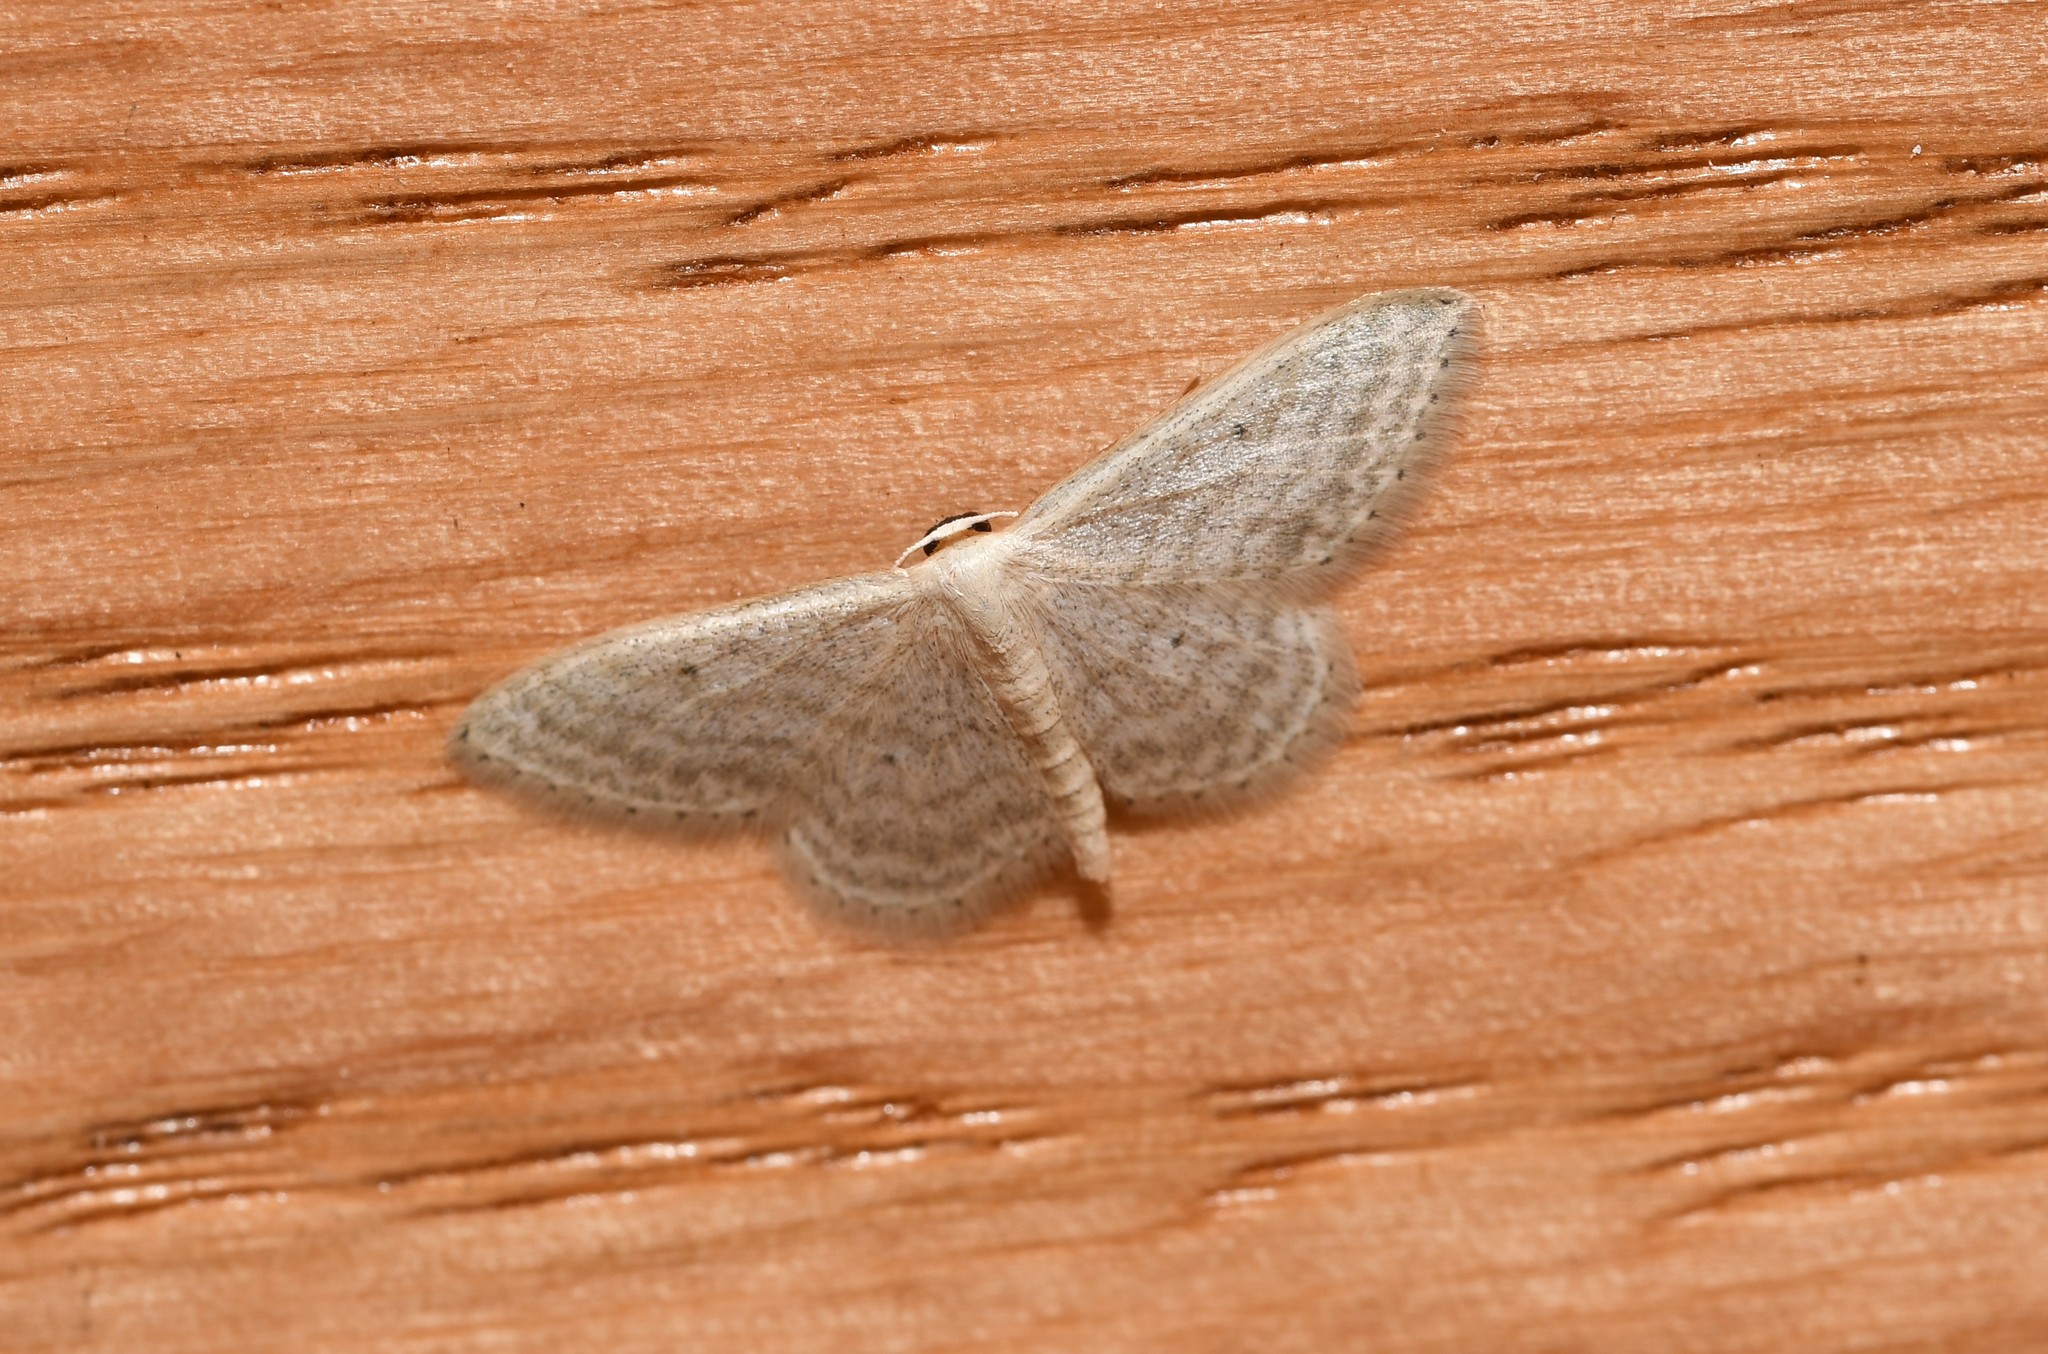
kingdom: Animalia
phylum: Arthropoda
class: Insecta
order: Lepidoptera
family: Geometridae
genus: Idaea
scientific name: Idaea subsericeata
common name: Satin wave
